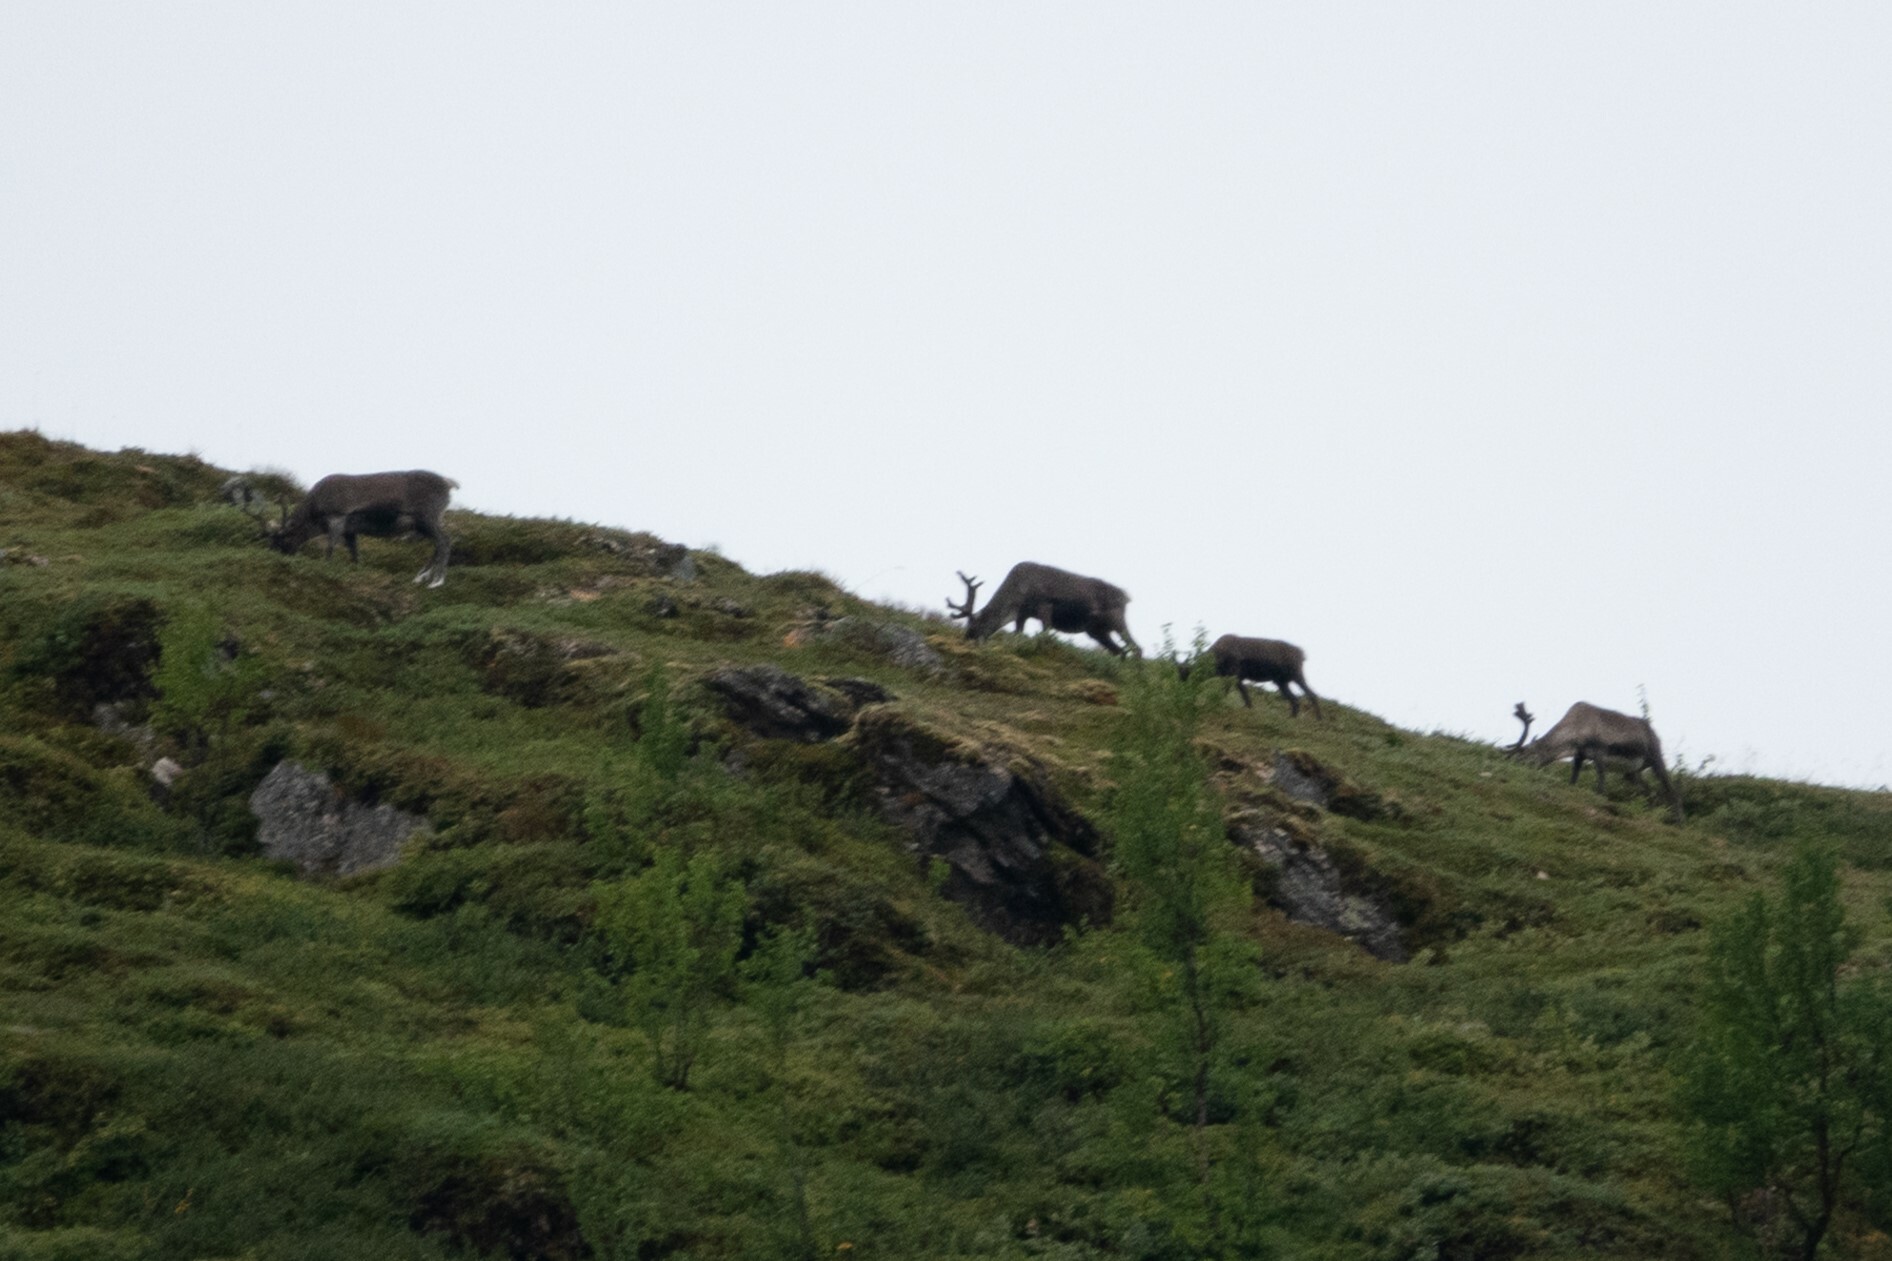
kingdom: Animalia
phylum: Chordata
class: Mammalia
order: Artiodactyla
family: Cervidae
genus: Rangifer
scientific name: Rangifer tarandus
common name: Reindeer
